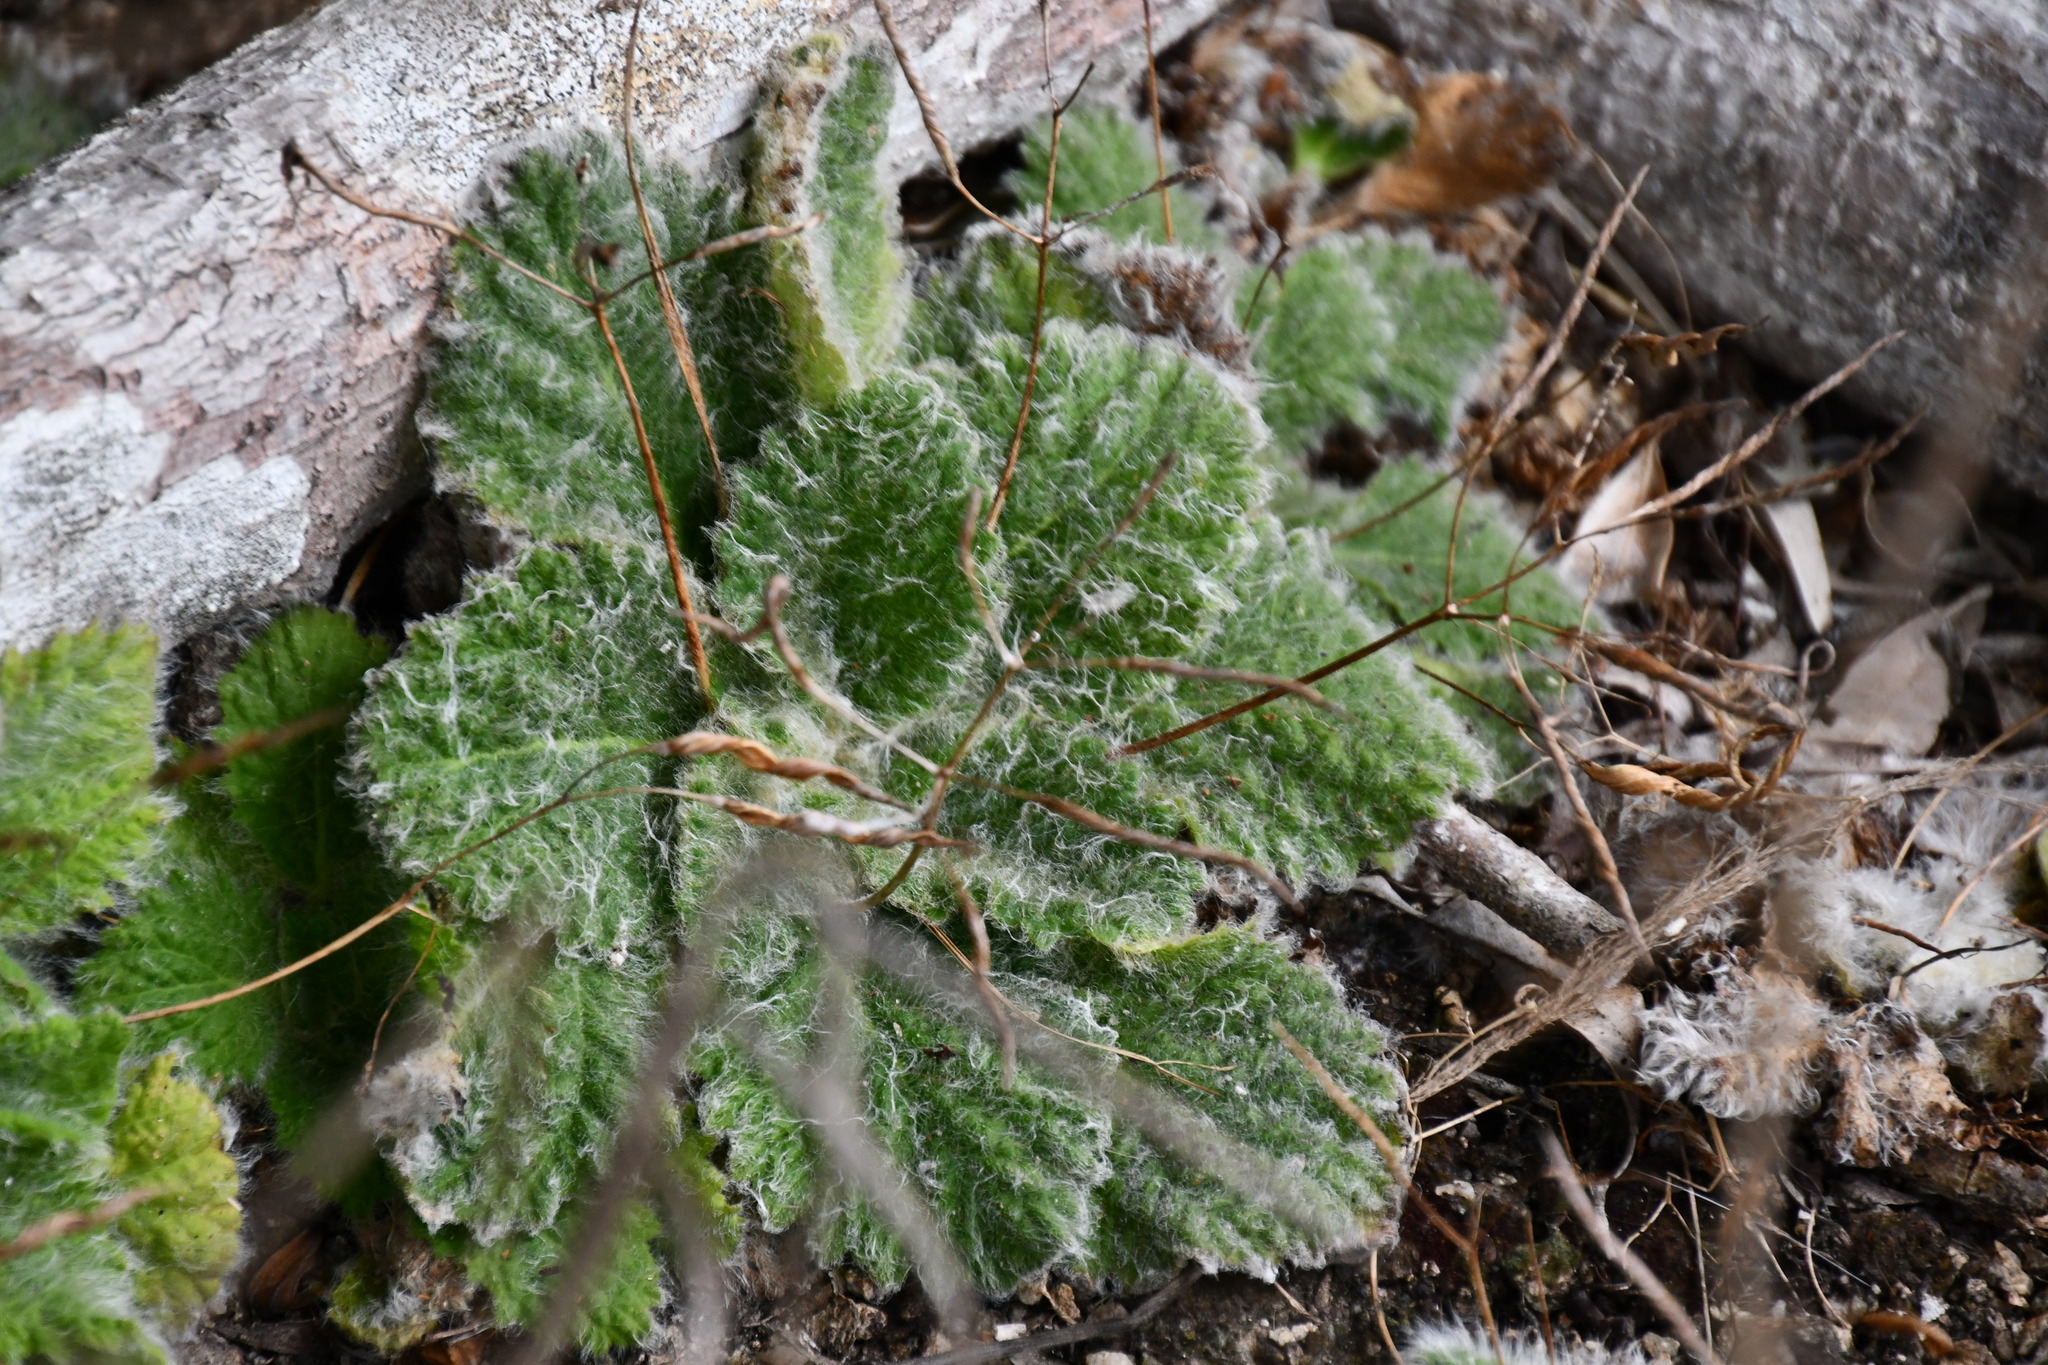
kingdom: Plantae
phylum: Tracheophyta
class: Magnoliopsida
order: Lamiales
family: Gesneriaceae
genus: Boea
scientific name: Boea hygroscopica
